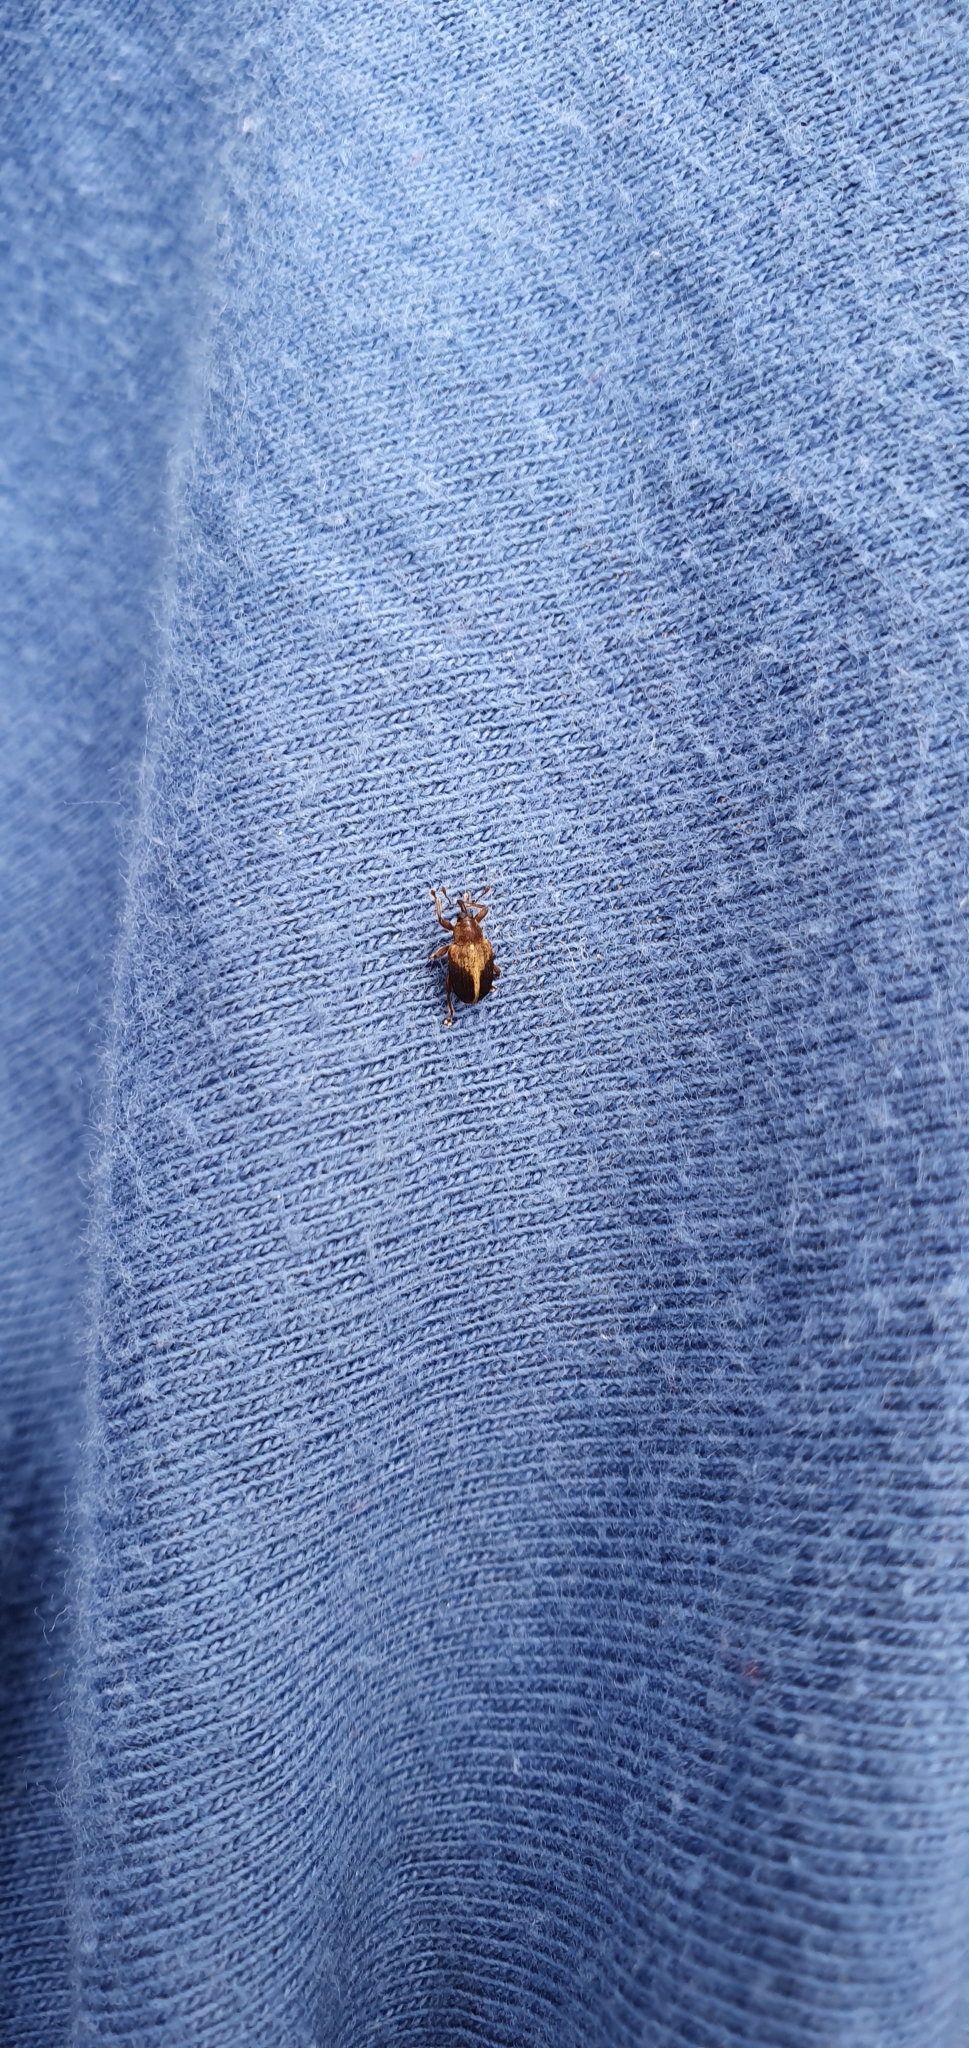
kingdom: Animalia
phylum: Arthropoda
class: Insecta
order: Coleoptera
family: Curculionidae
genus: Lignyodes
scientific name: Lignyodes enucleator
